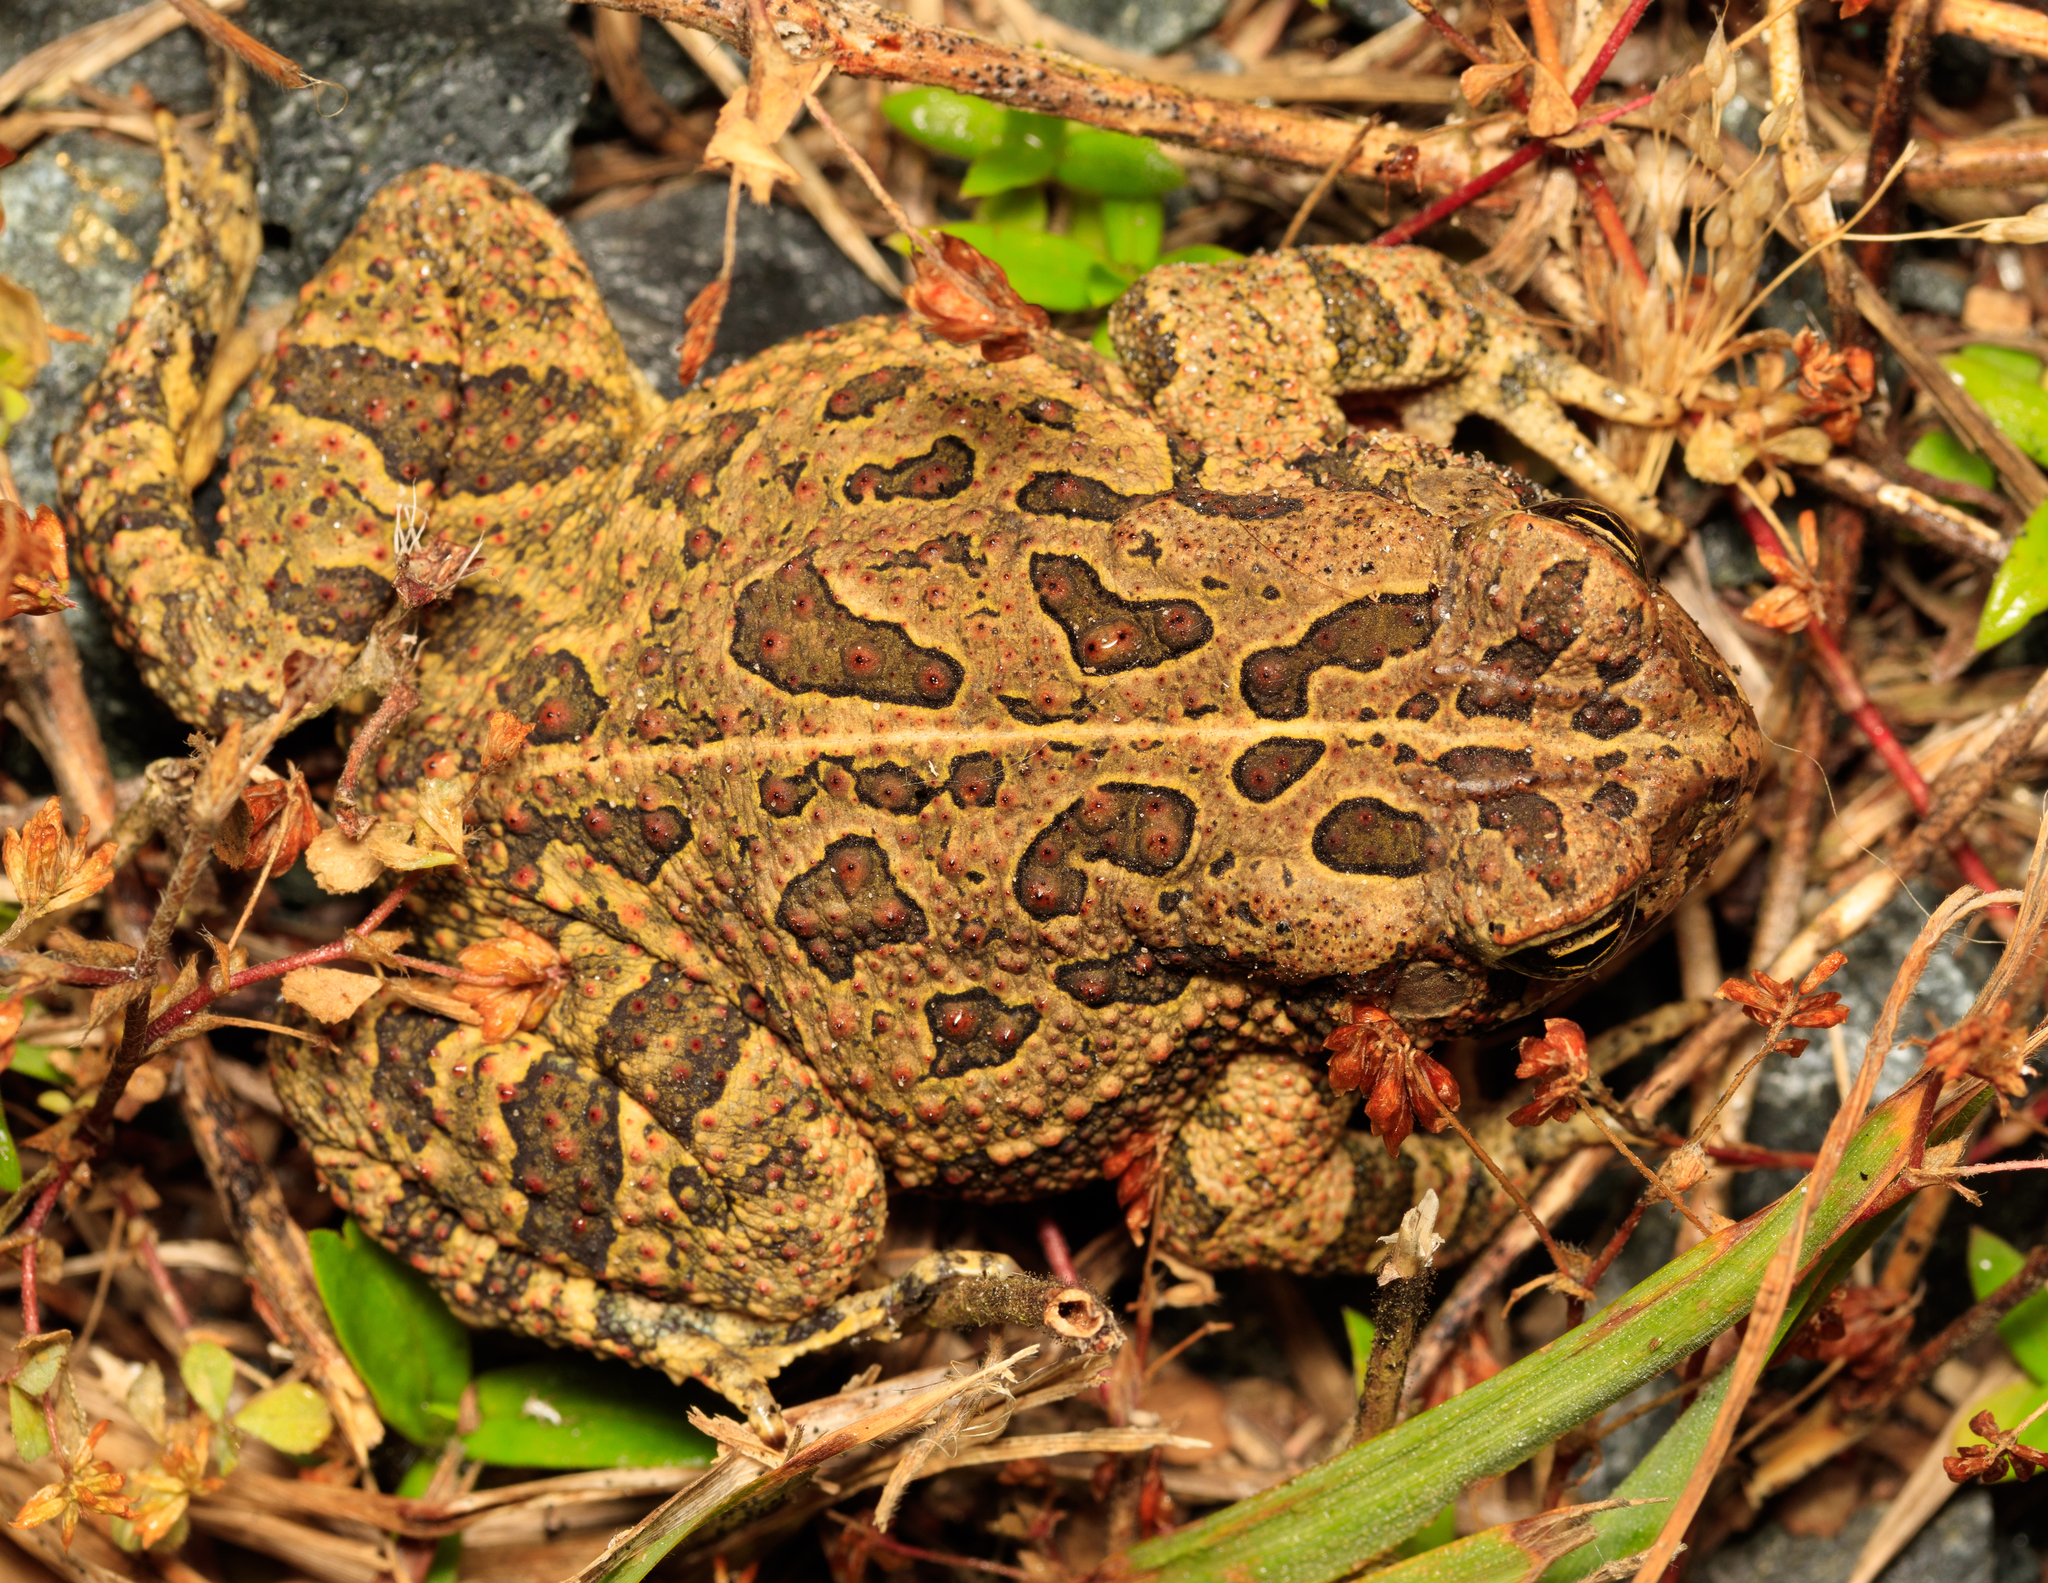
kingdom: Animalia
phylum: Chordata
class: Amphibia
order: Anura
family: Bufonidae
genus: Anaxyrus
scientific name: Anaxyrus fowleri
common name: Fowler's toad
